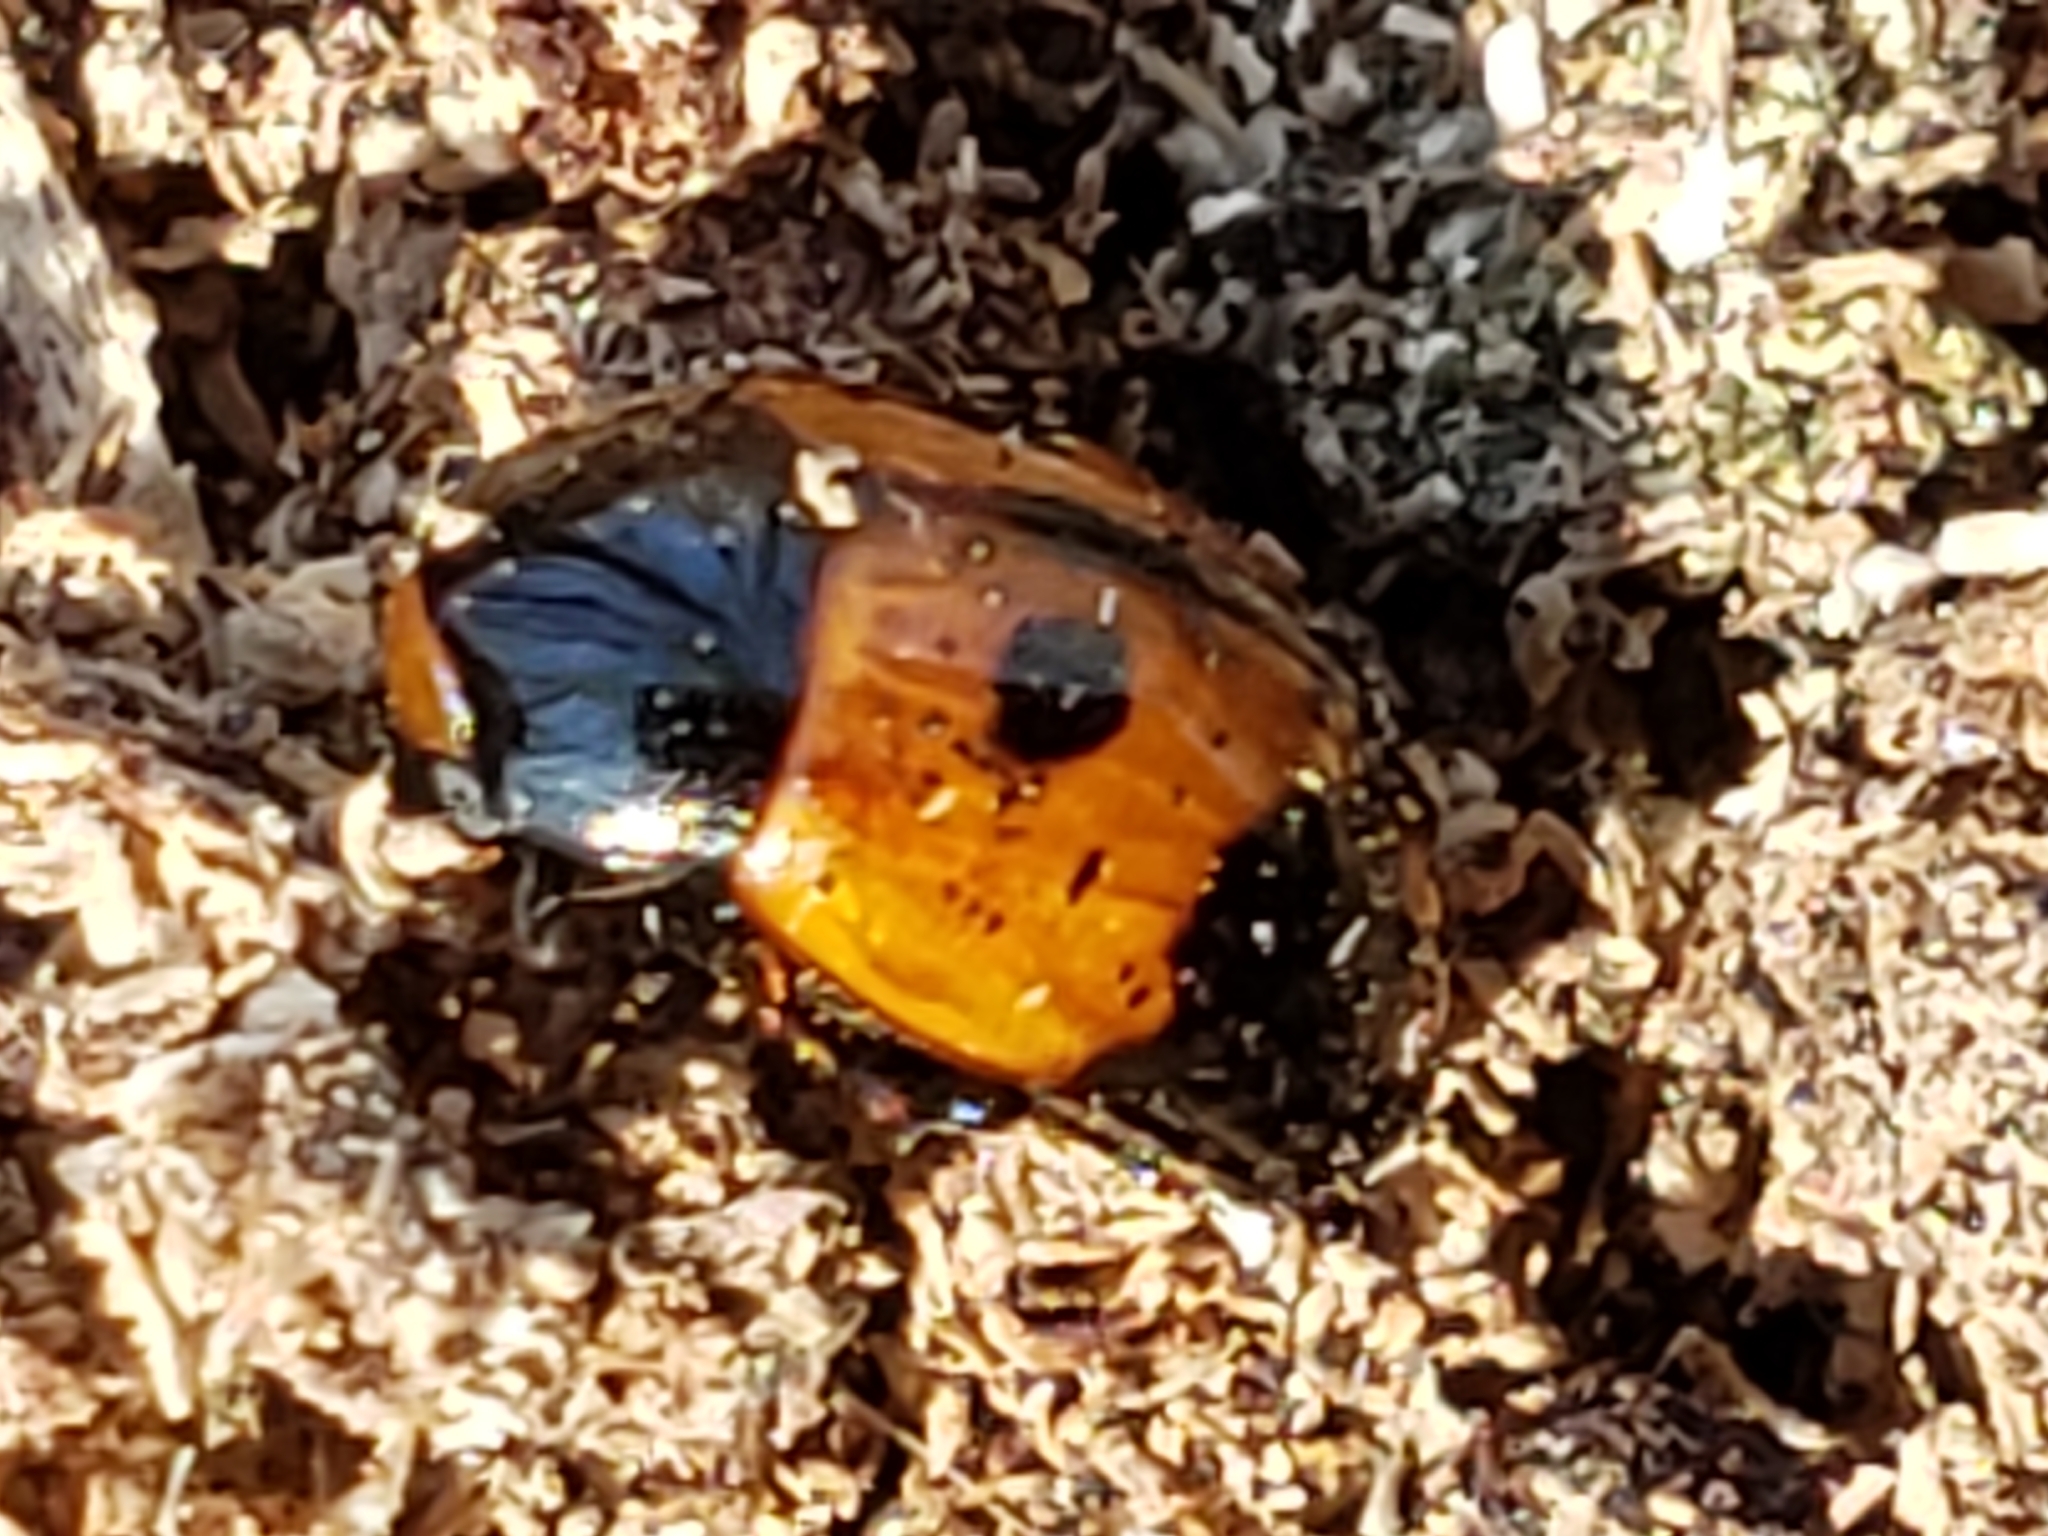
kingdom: Animalia
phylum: Arthropoda
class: Insecta
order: Coleoptera
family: Tenebrionidae
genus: Diaperis
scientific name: Diaperis maculata
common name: Darkling beetle
